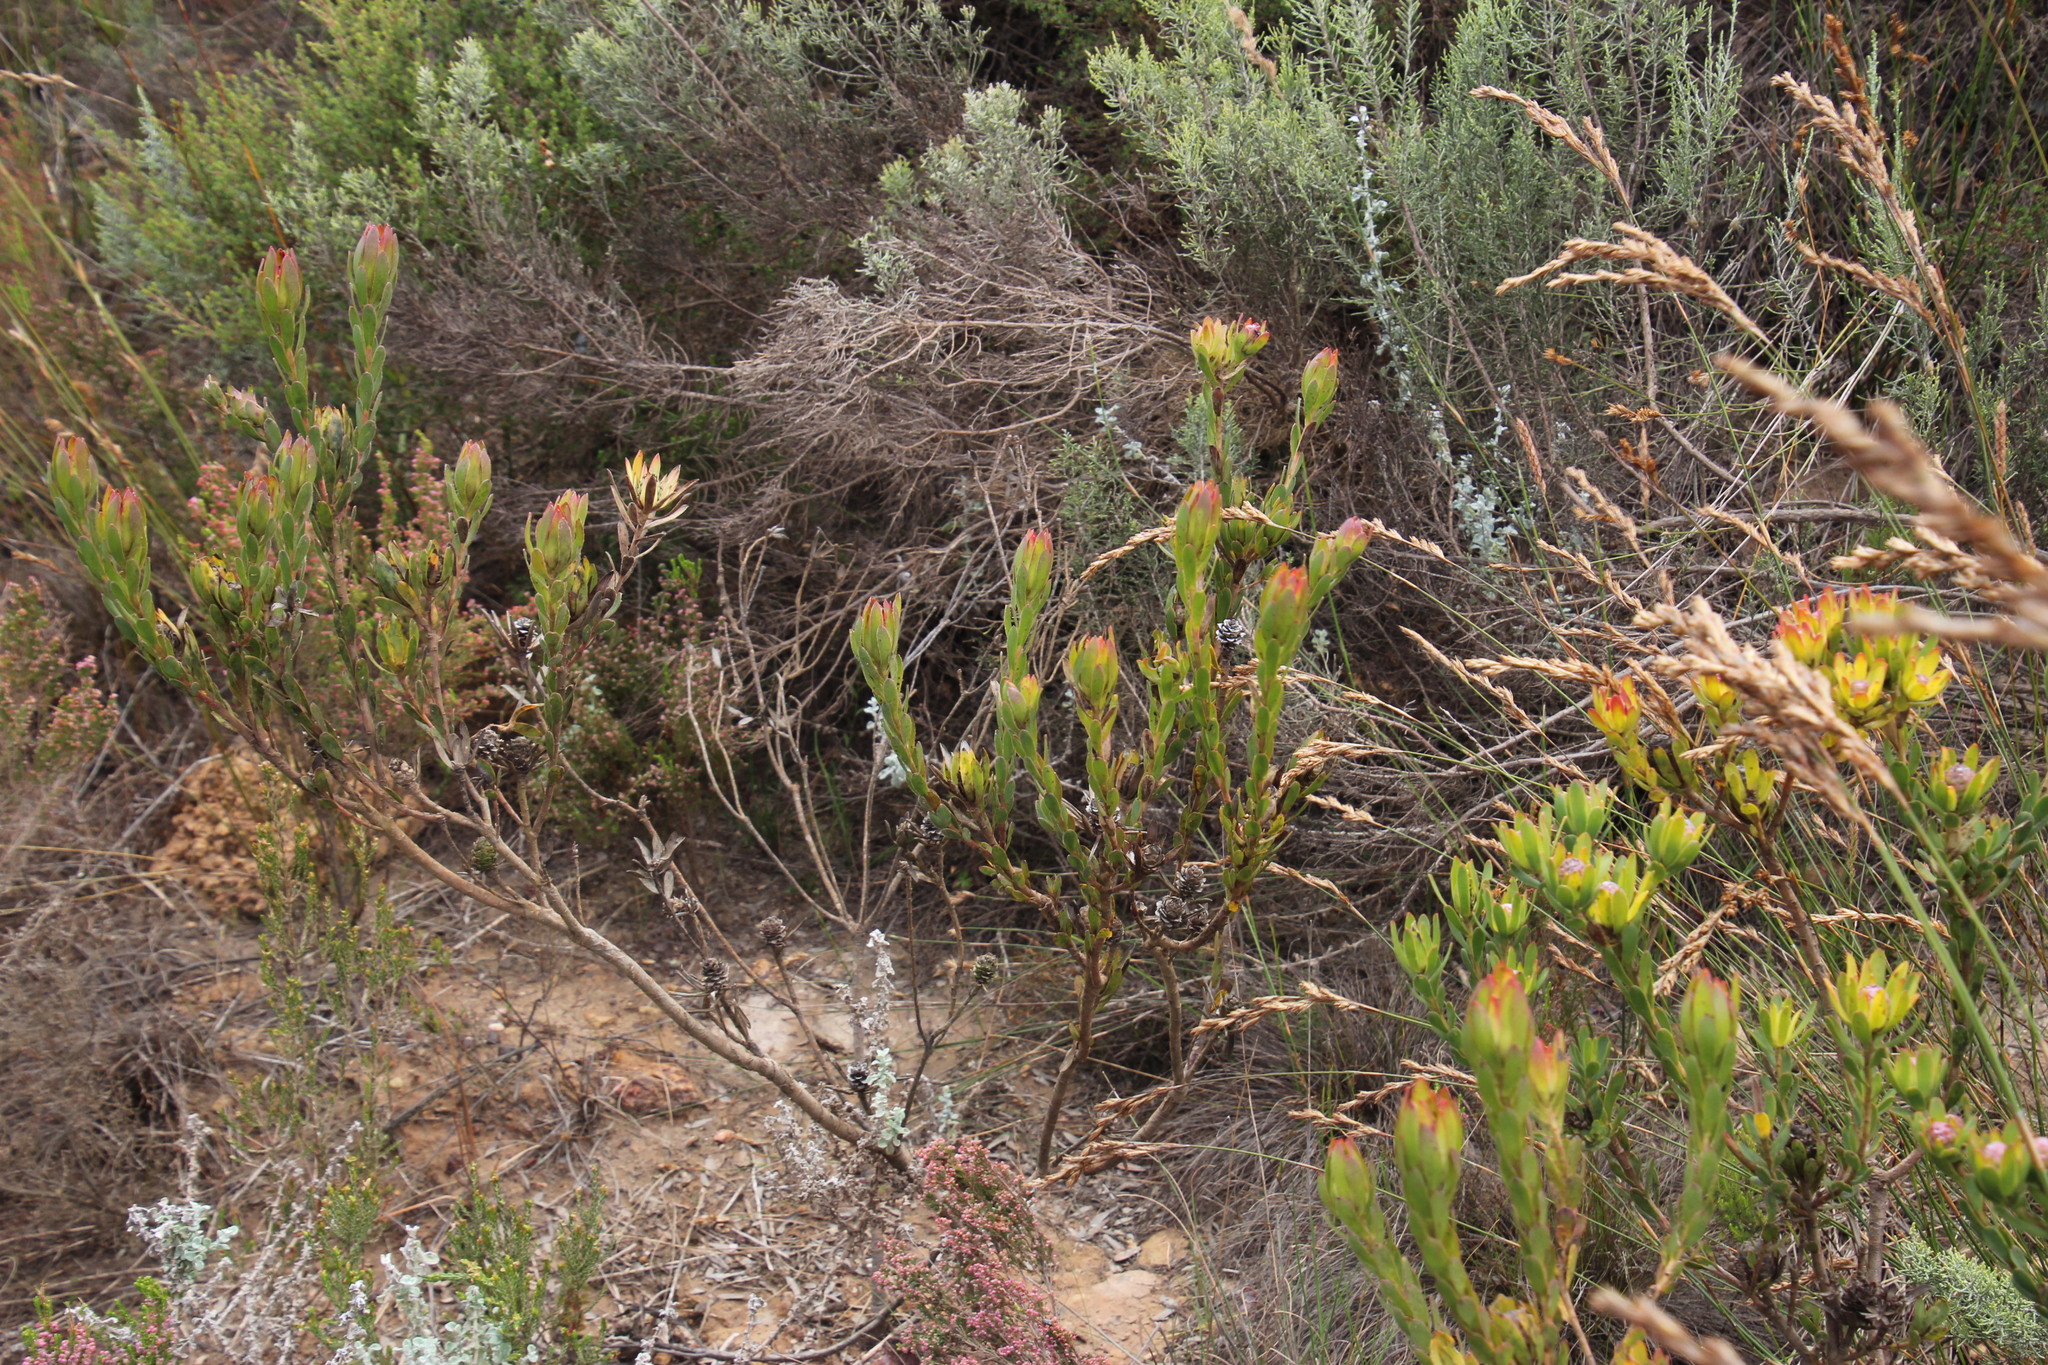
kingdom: Plantae
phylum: Tracheophyta
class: Magnoliopsida
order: Proteales
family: Proteaceae
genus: Leucadendron
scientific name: Leucadendron stelligerum
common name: Agulhas conebush
